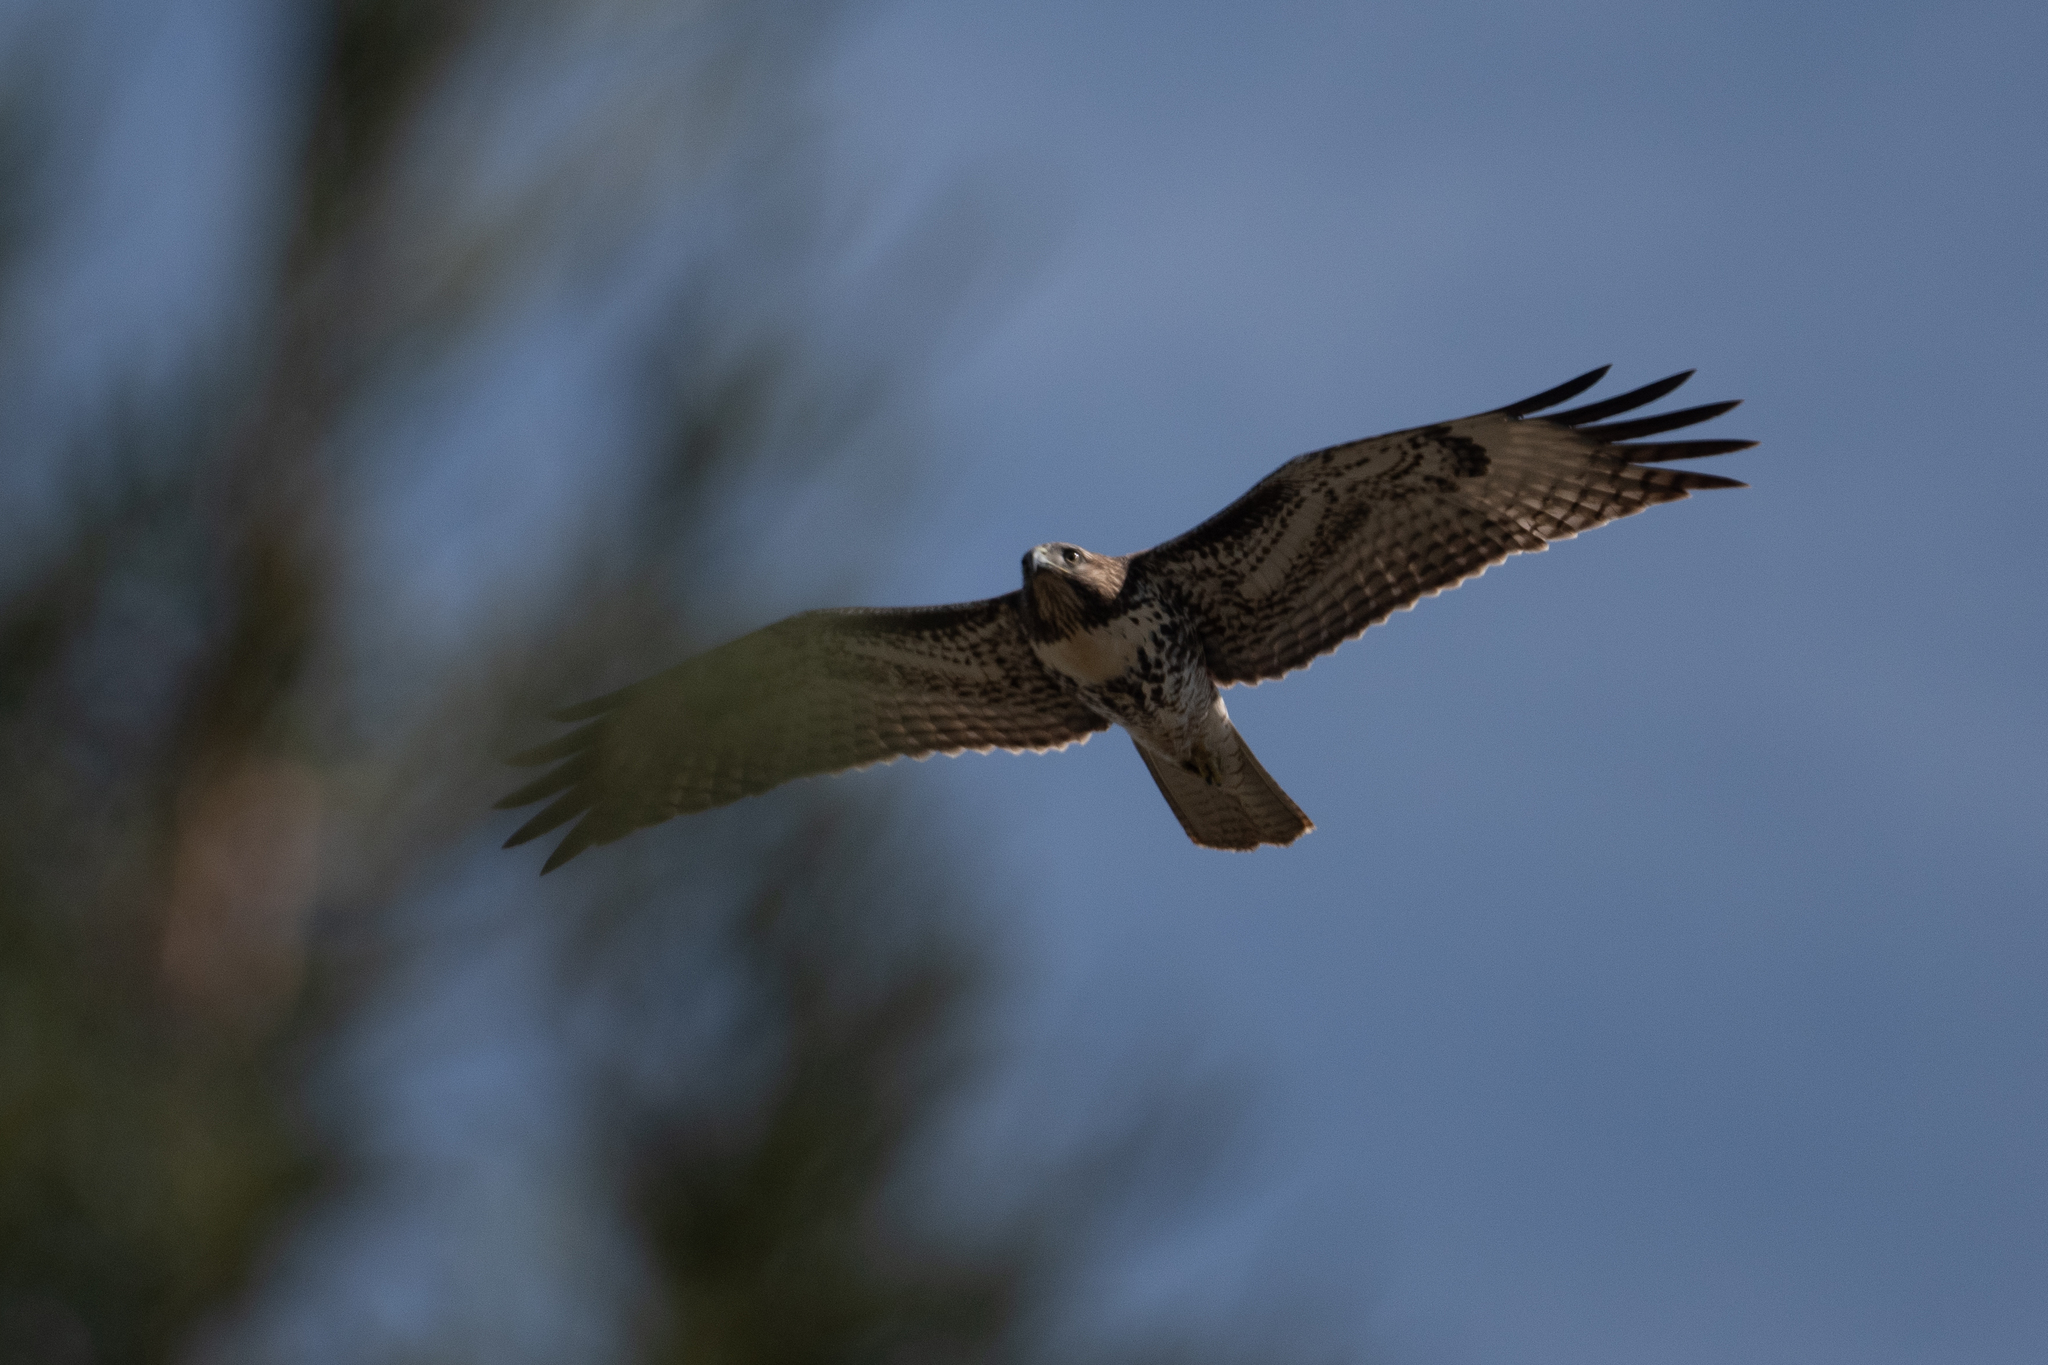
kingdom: Animalia
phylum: Chordata
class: Aves
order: Accipitriformes
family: Accipitridae
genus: Buteo
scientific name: Buteo jamaicensis
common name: Red-tailed hawk
